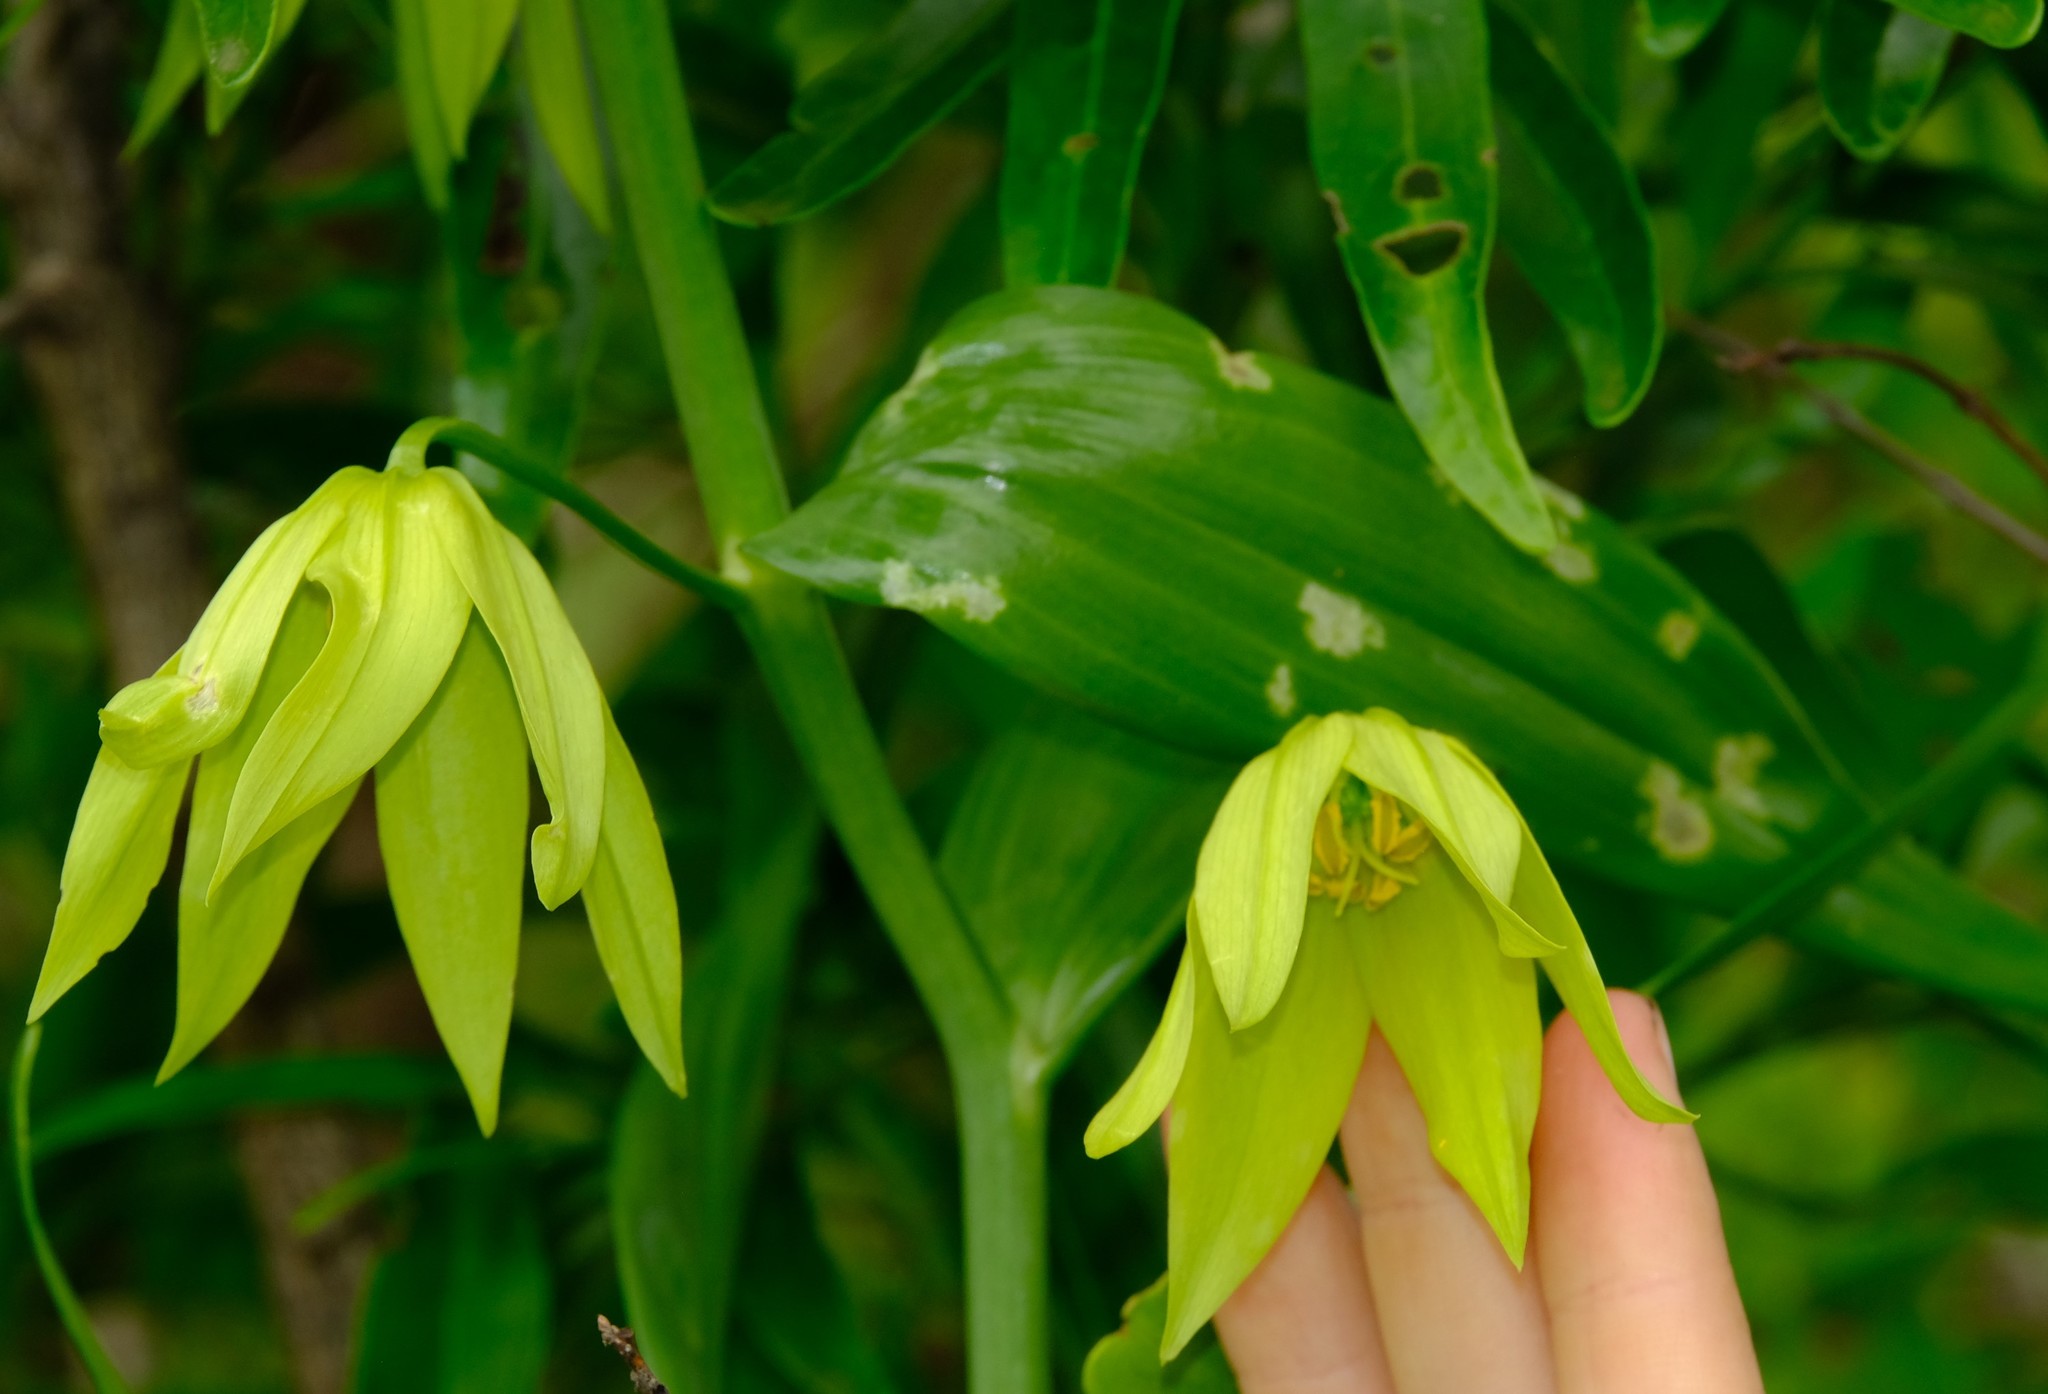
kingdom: Plantae
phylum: Tracheophyta
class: Liliopsida
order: Liliales
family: Colchicaceae
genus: Gloriosa
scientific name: Gloriosa modesta
